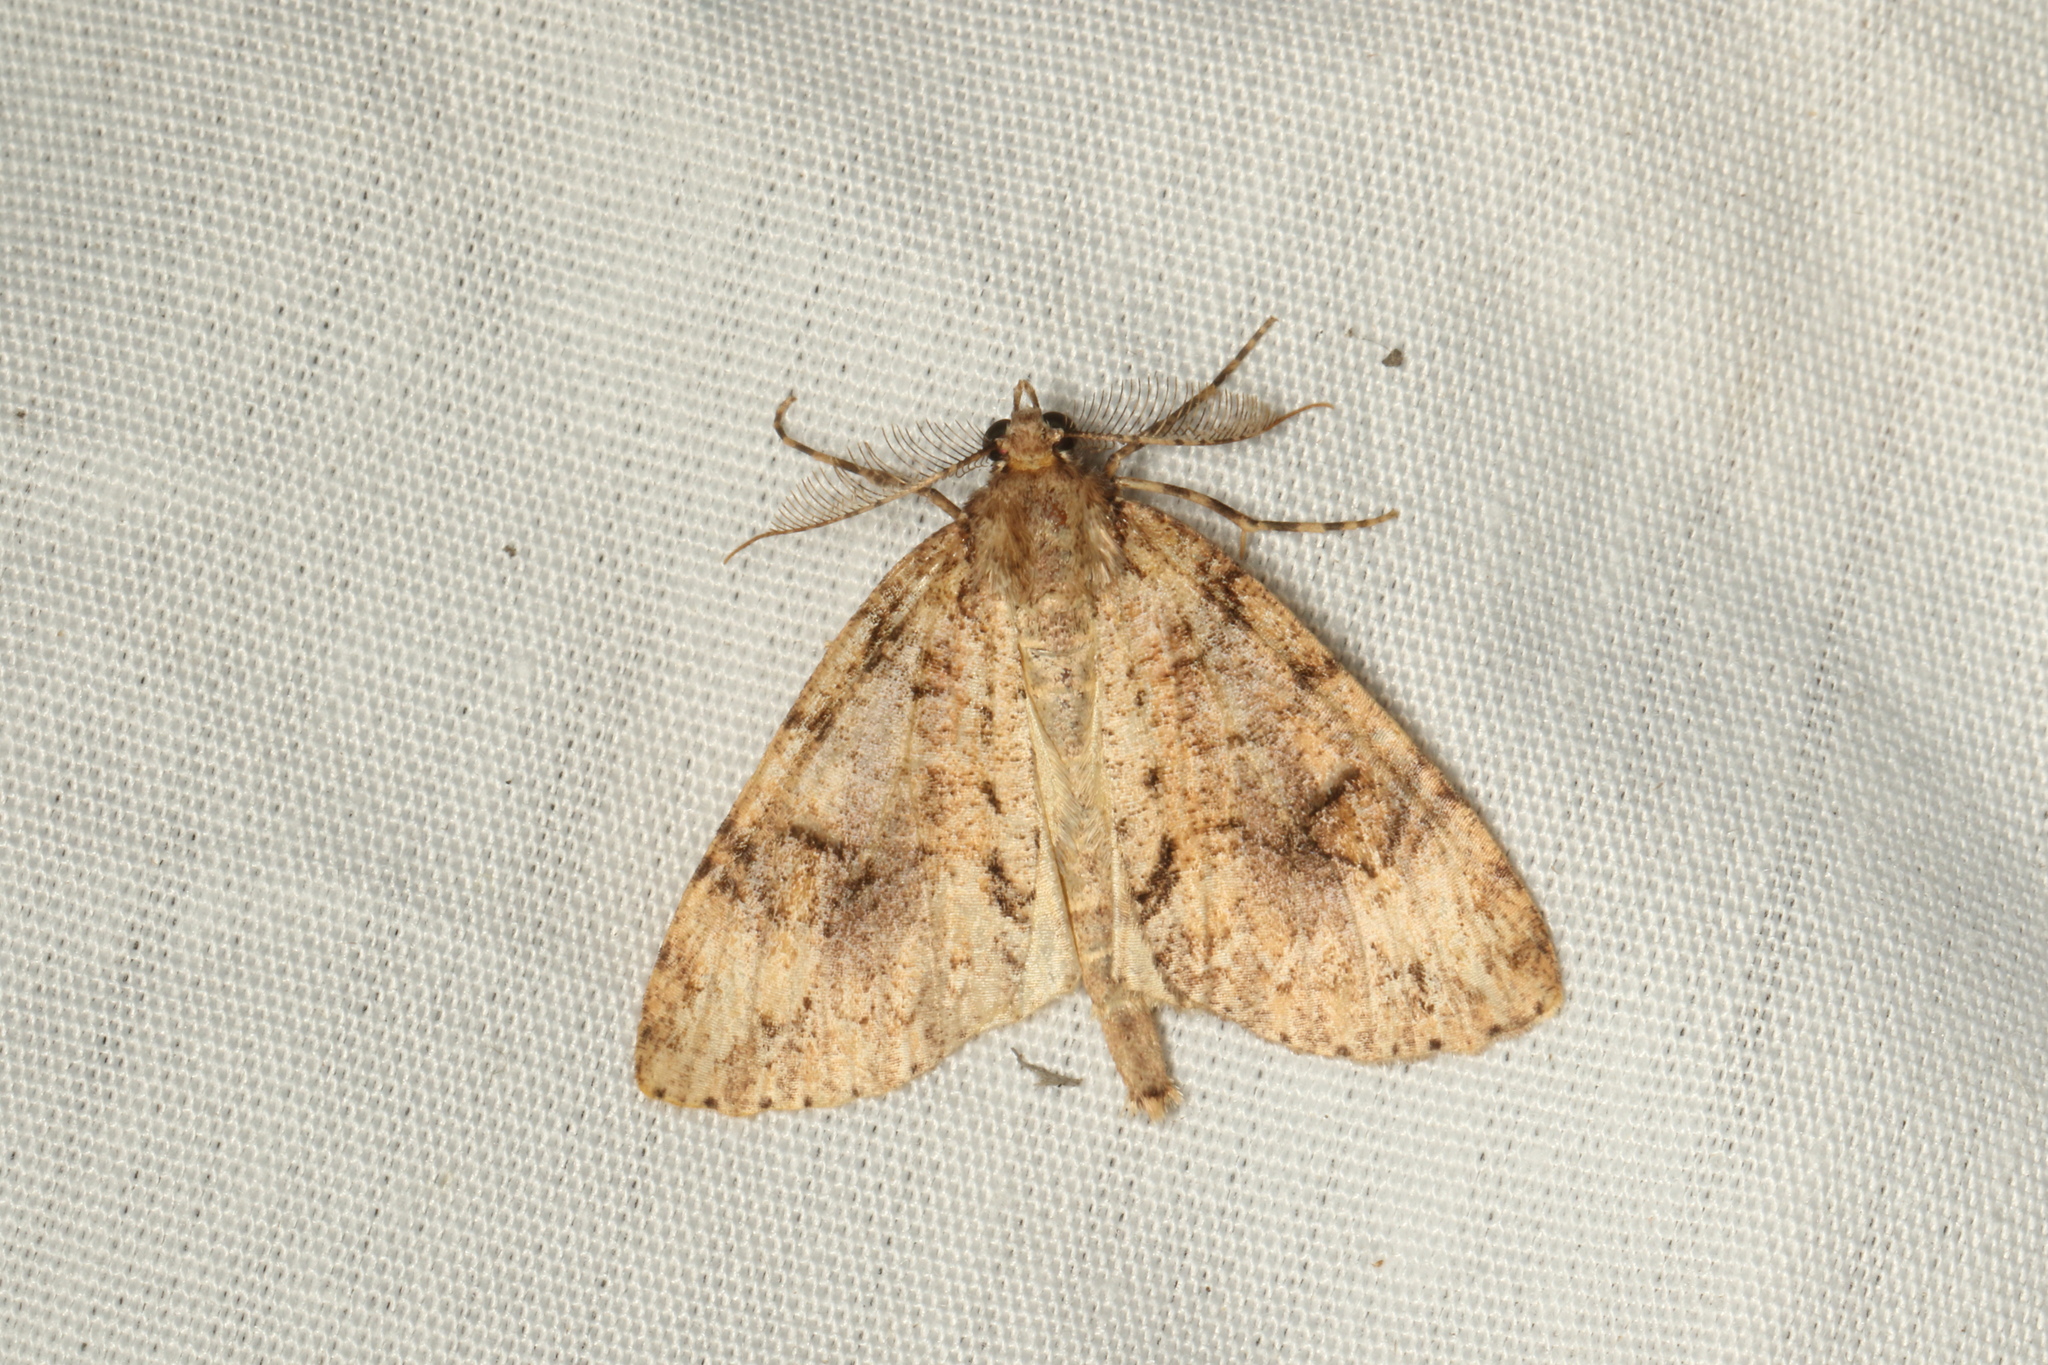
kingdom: Animalia
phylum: Arthropoda
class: Insecta
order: Lepidoptera
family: Geometridae
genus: Pseudocoremia
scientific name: Pseudocoremia suavis
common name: Common forest looper
